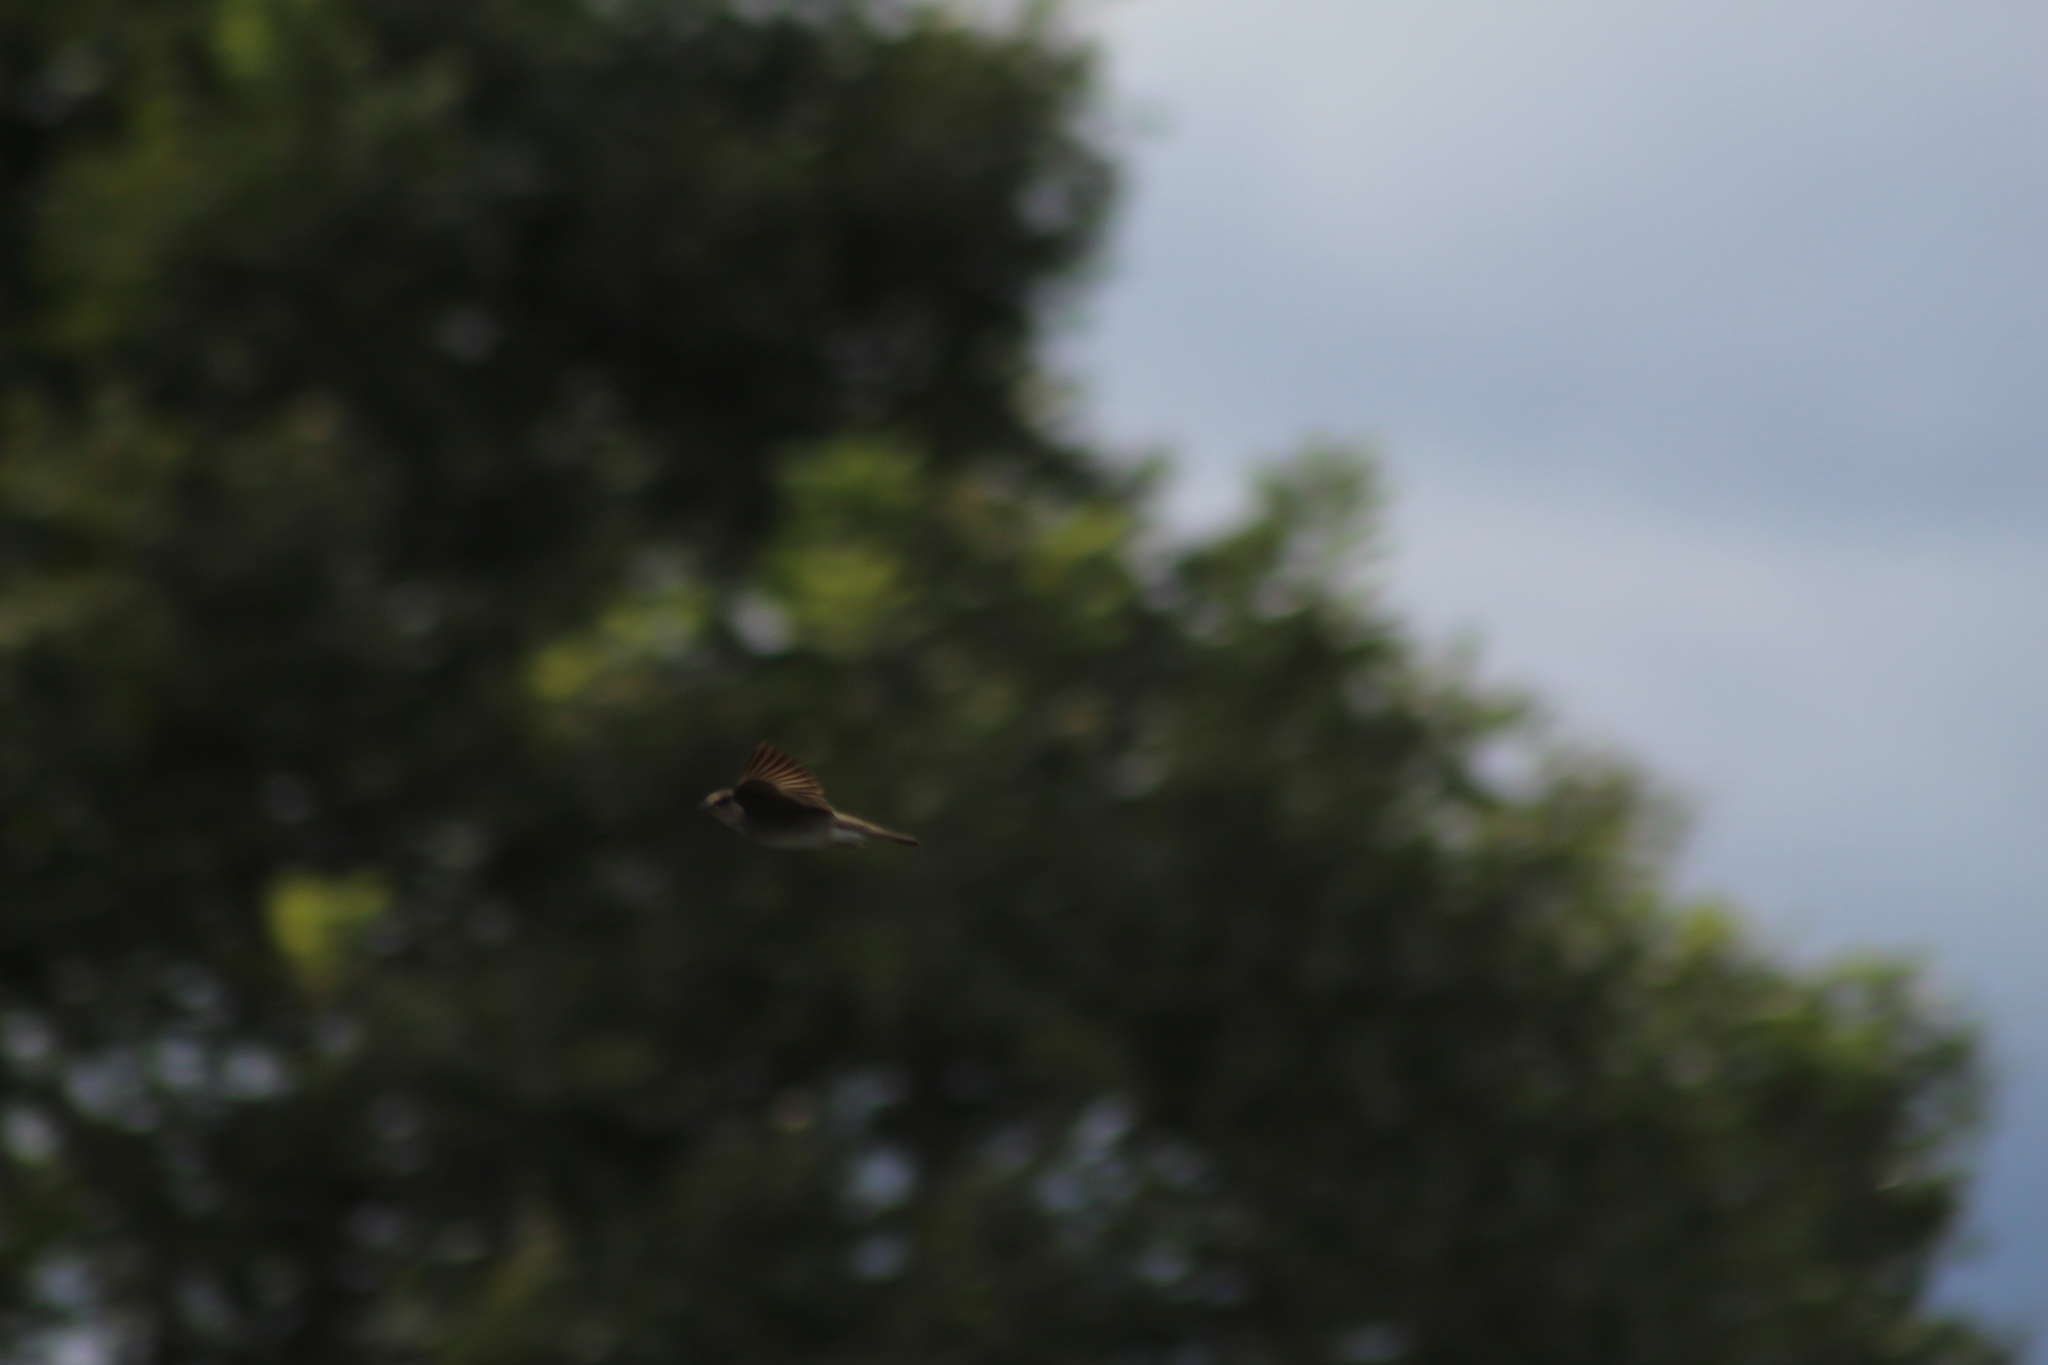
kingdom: Animalia
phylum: Chordata
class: Aves
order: Passeriformes
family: Hirundinidae
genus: Stelgidopteryx
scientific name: Stelgidopteryx serripennis
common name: Northern rough-winged swallow
